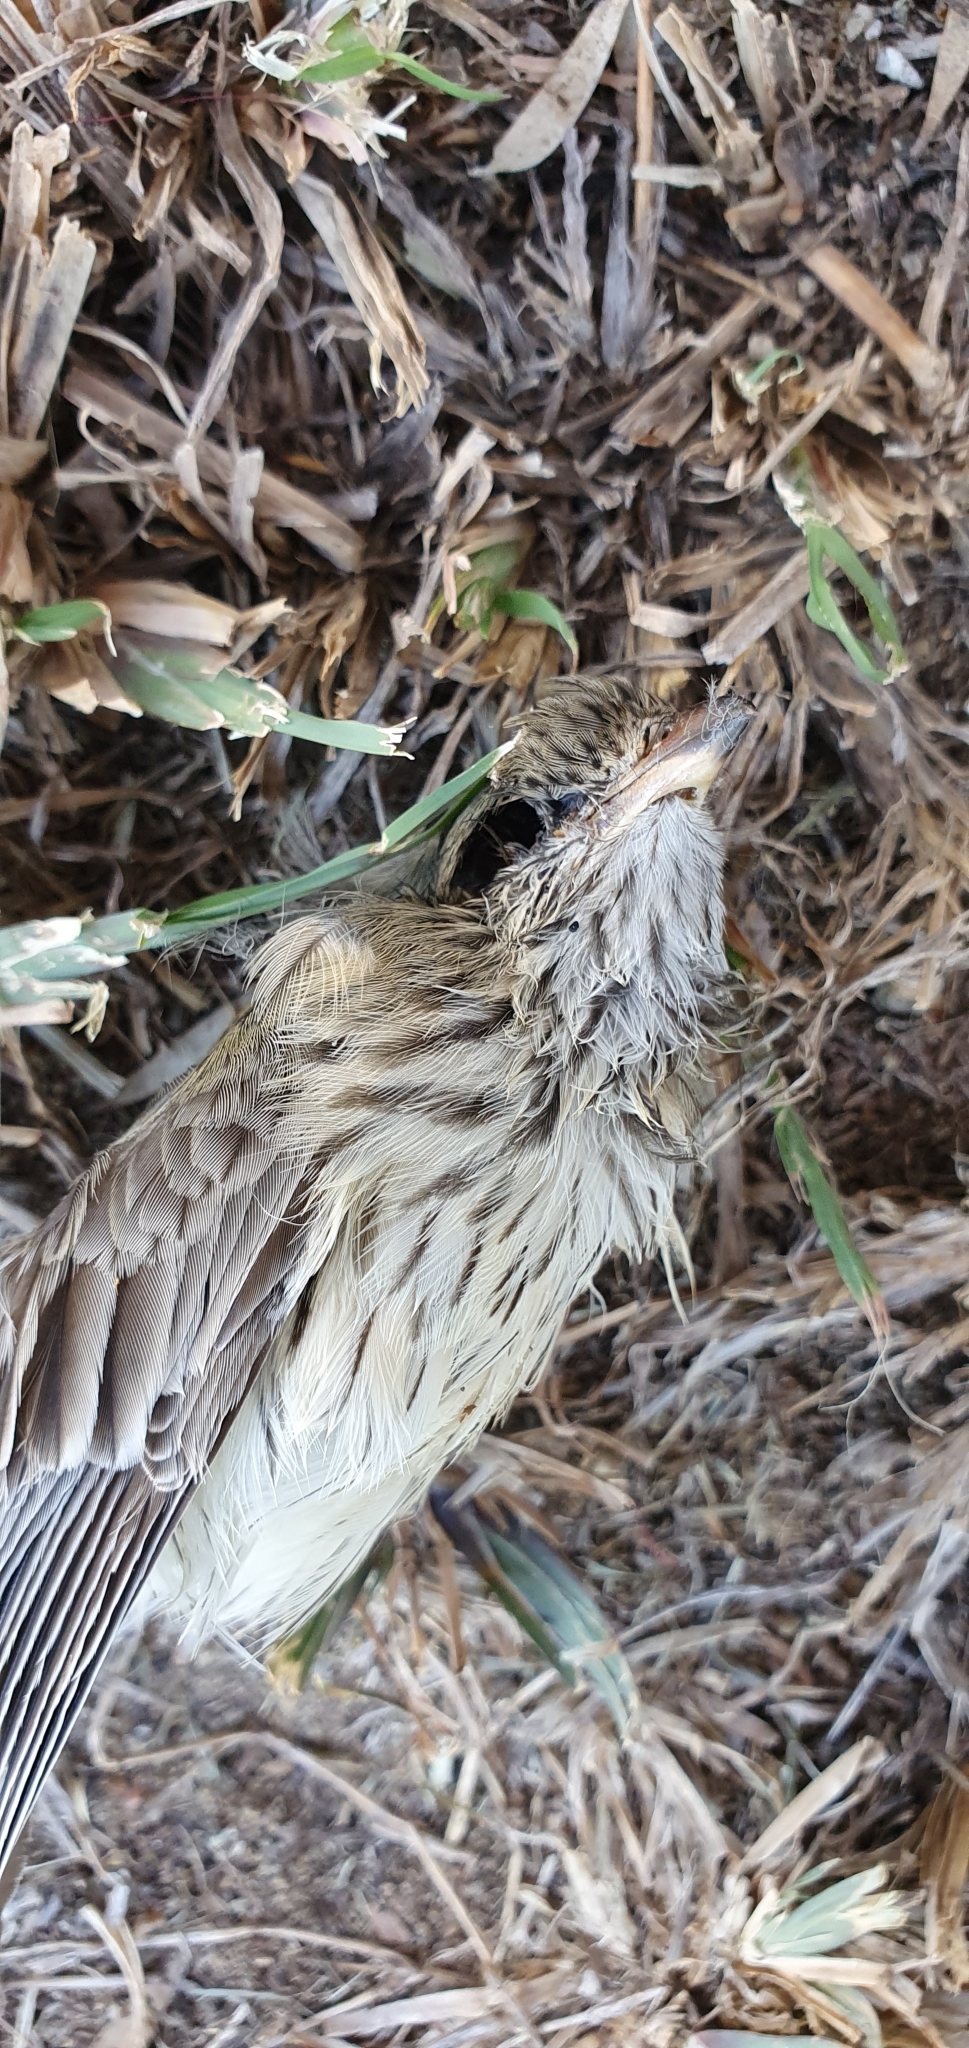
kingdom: Animalia
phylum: Chordata
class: Aves
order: Passeriformes
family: Pachycephalidae
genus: Pachycephala
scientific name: Pachycephala rufiventris
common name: Rufous whistler
